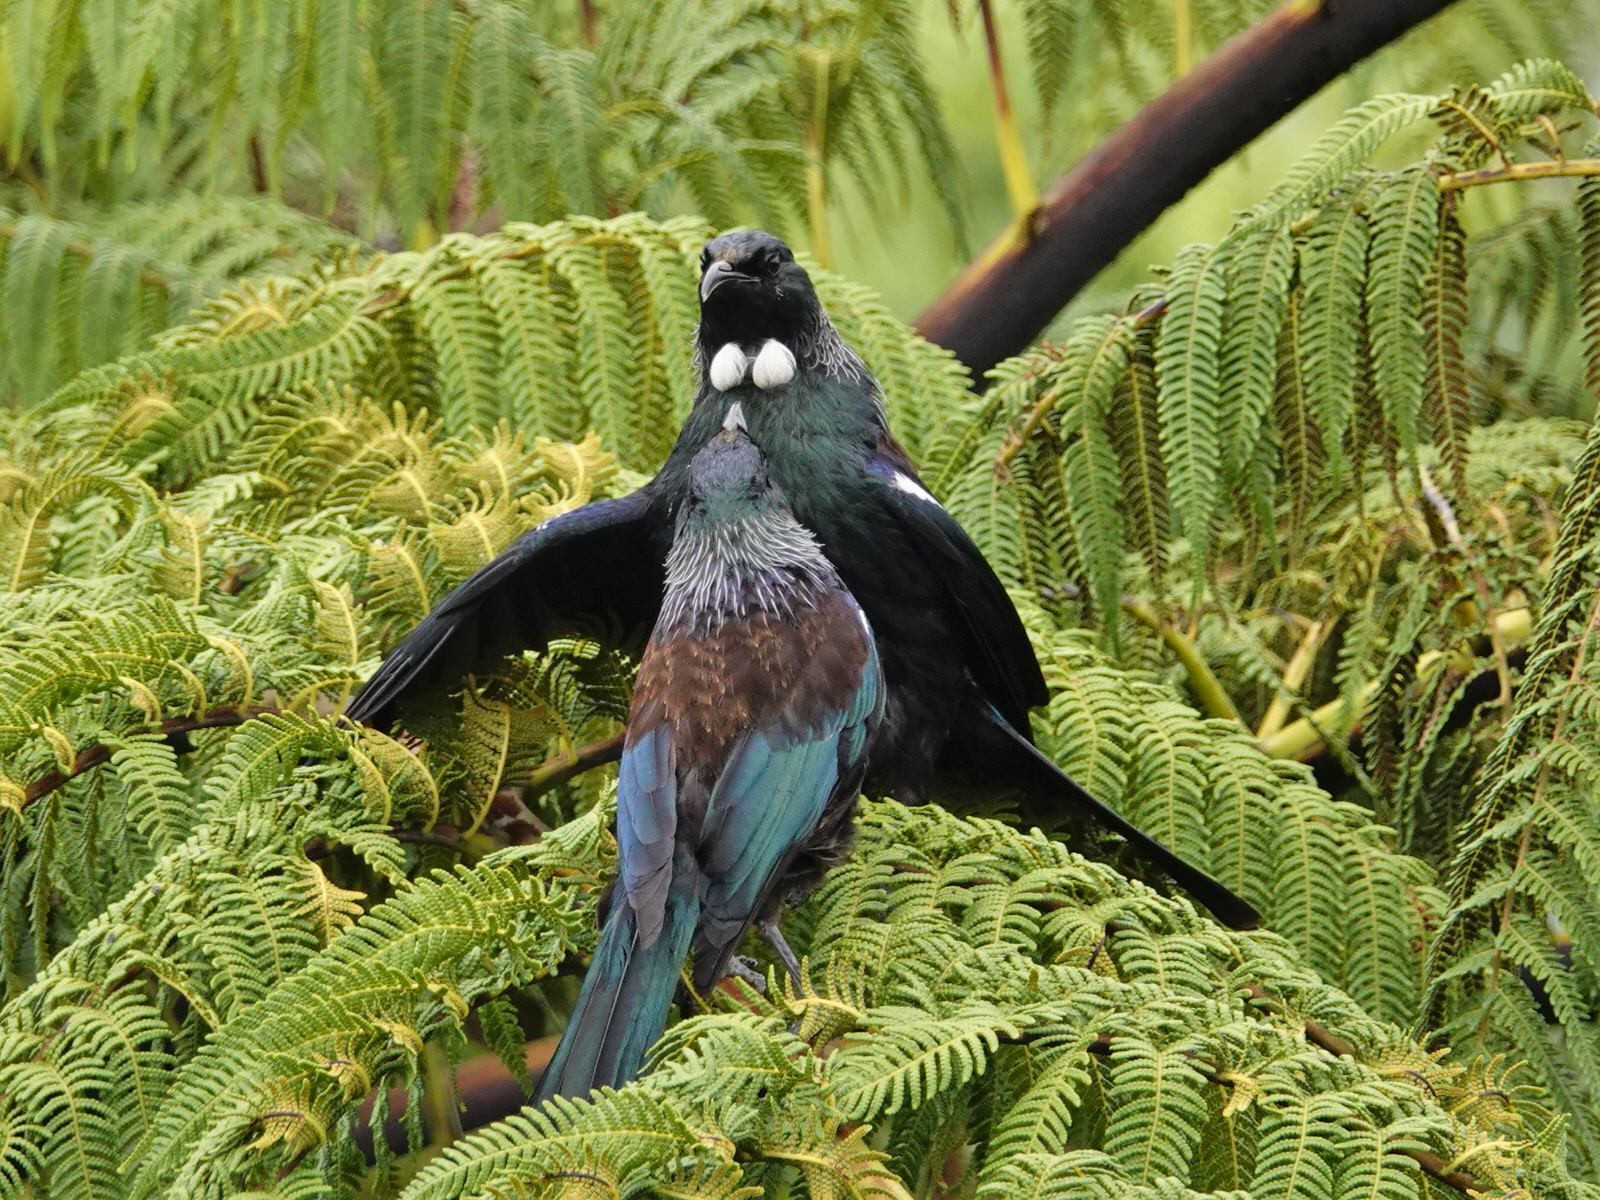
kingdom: Animalia
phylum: Chordata
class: Aves
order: Passeriformes
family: Meliphagidae
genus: Prosthemadera
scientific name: Prosthemadera novaeseelandiae
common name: Tui
